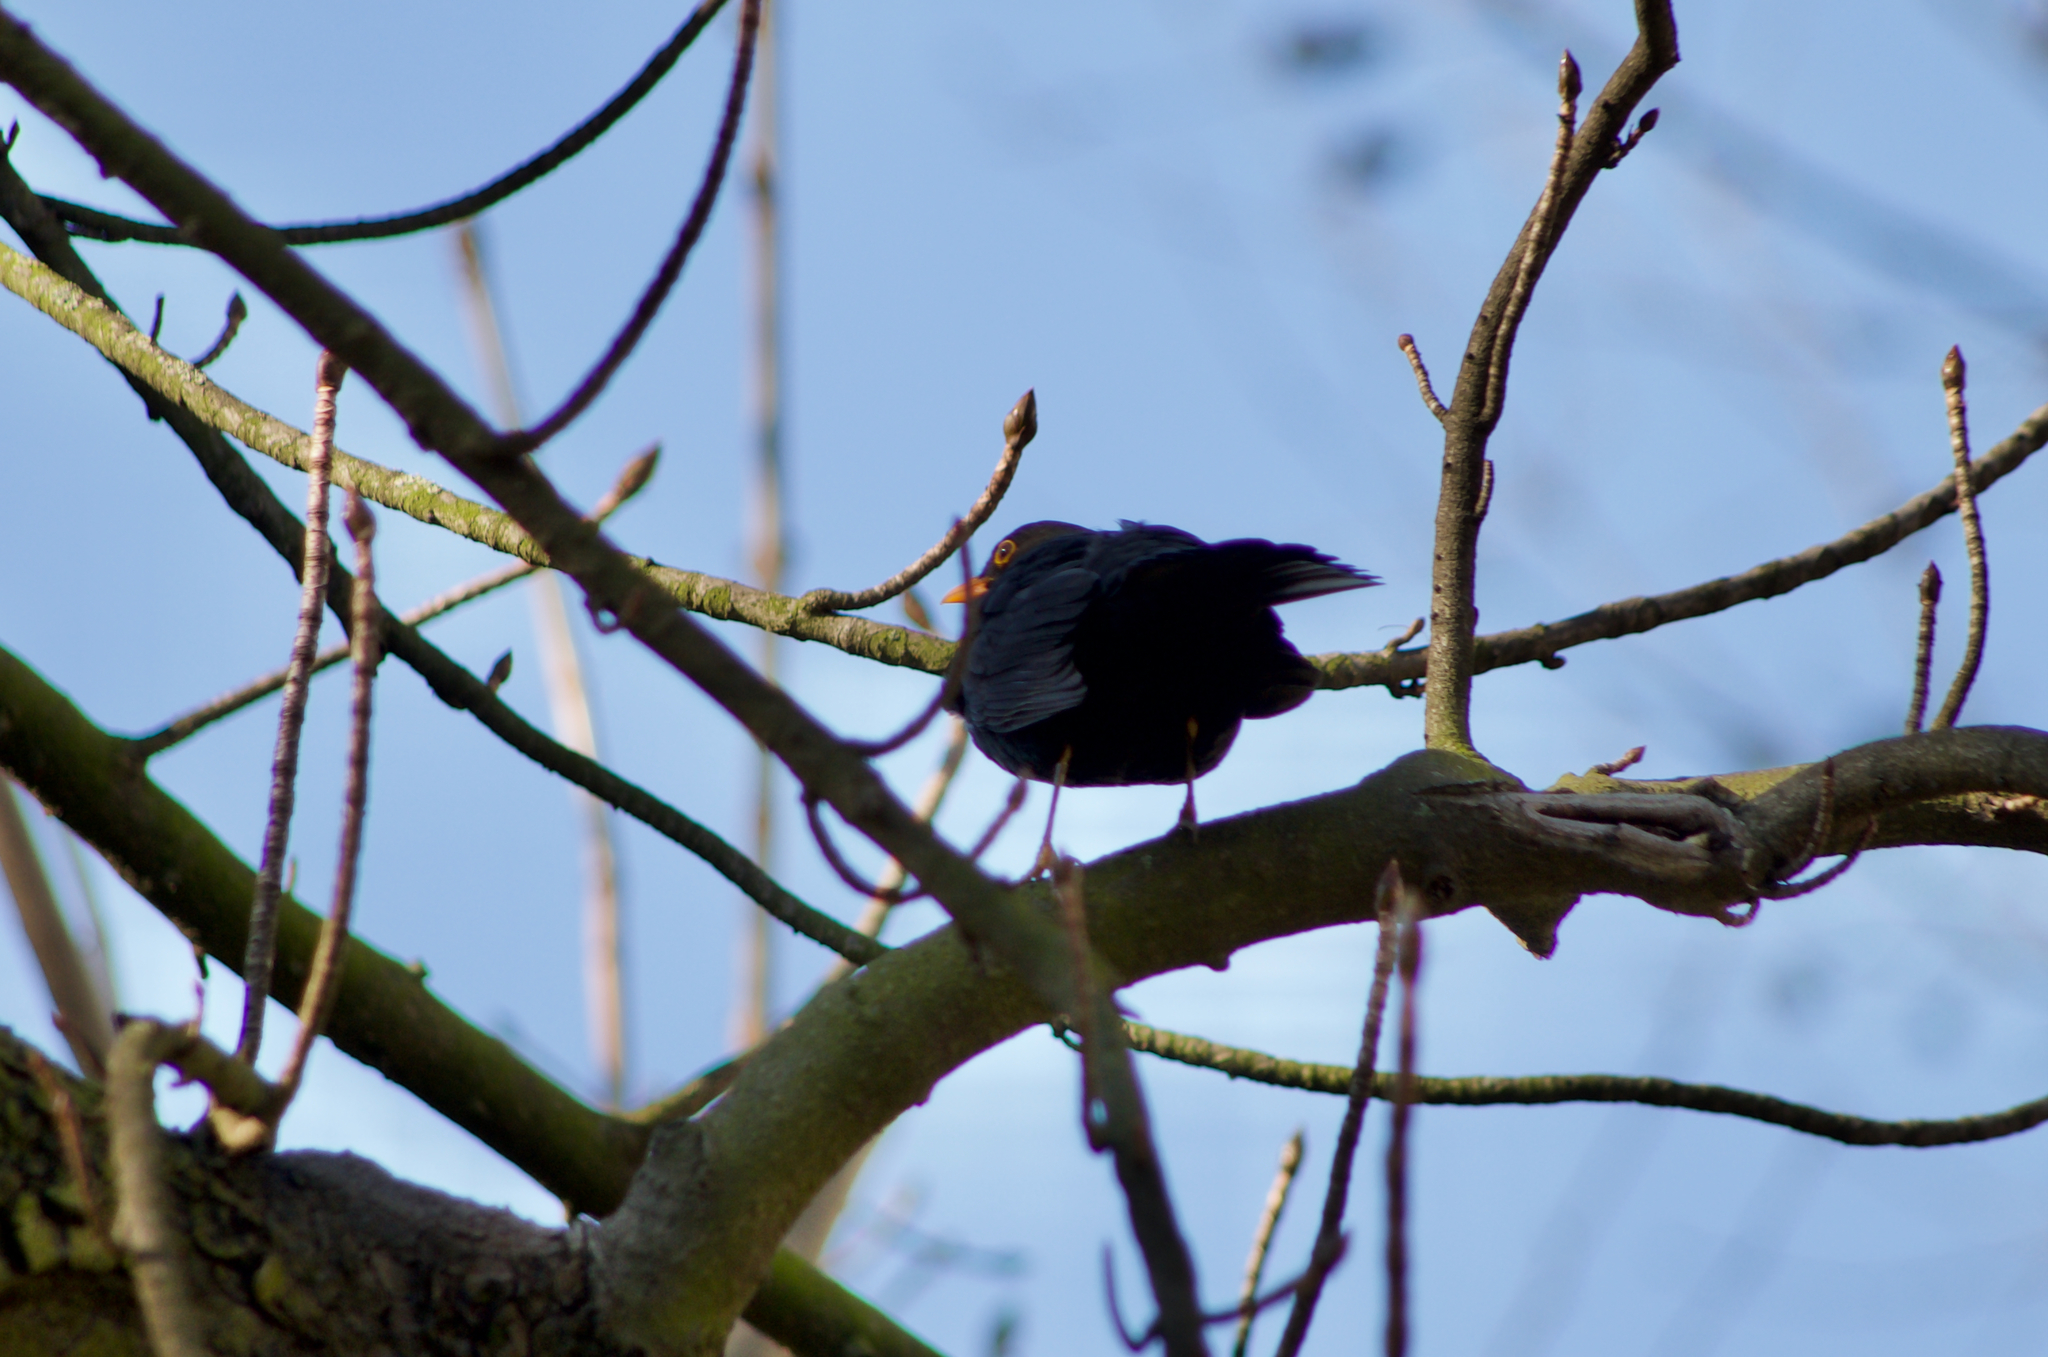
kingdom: Animalia
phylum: Chordata
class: Aves
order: Passeriformes
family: Turdidae
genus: Turdus
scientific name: Turdus merula
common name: Common blackbird
